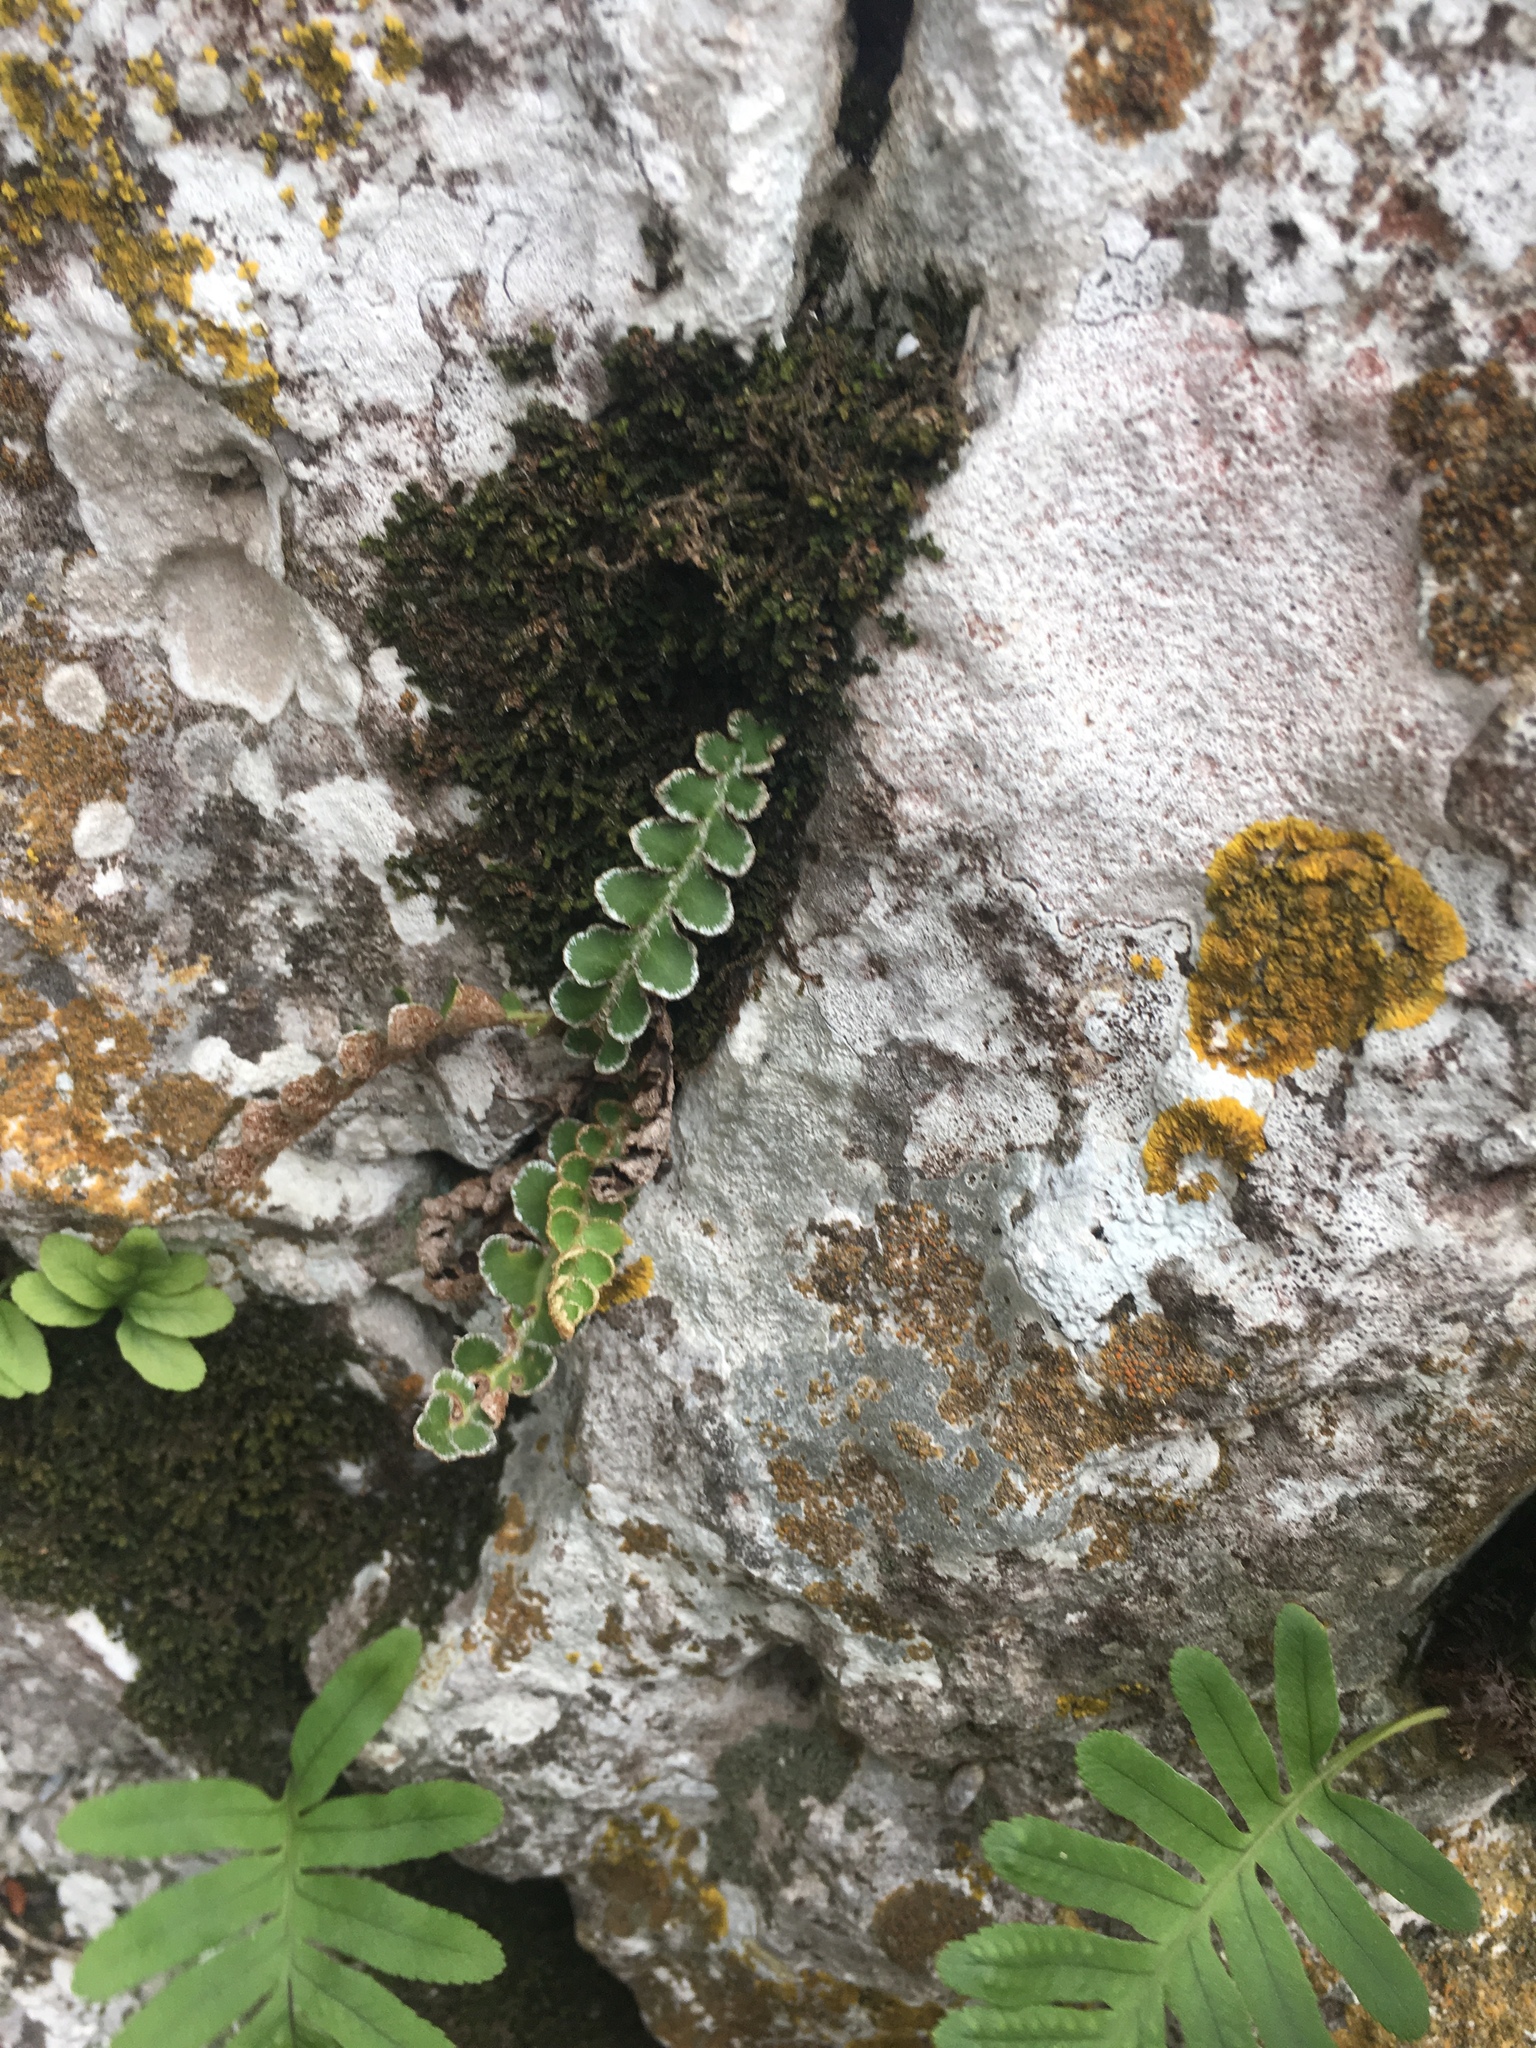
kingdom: Plantae
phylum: Tracheophyta
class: Polypodiopsida
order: Polypodiales
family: Aspleniaceae
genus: Asplenium
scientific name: Asplenium ceterach
